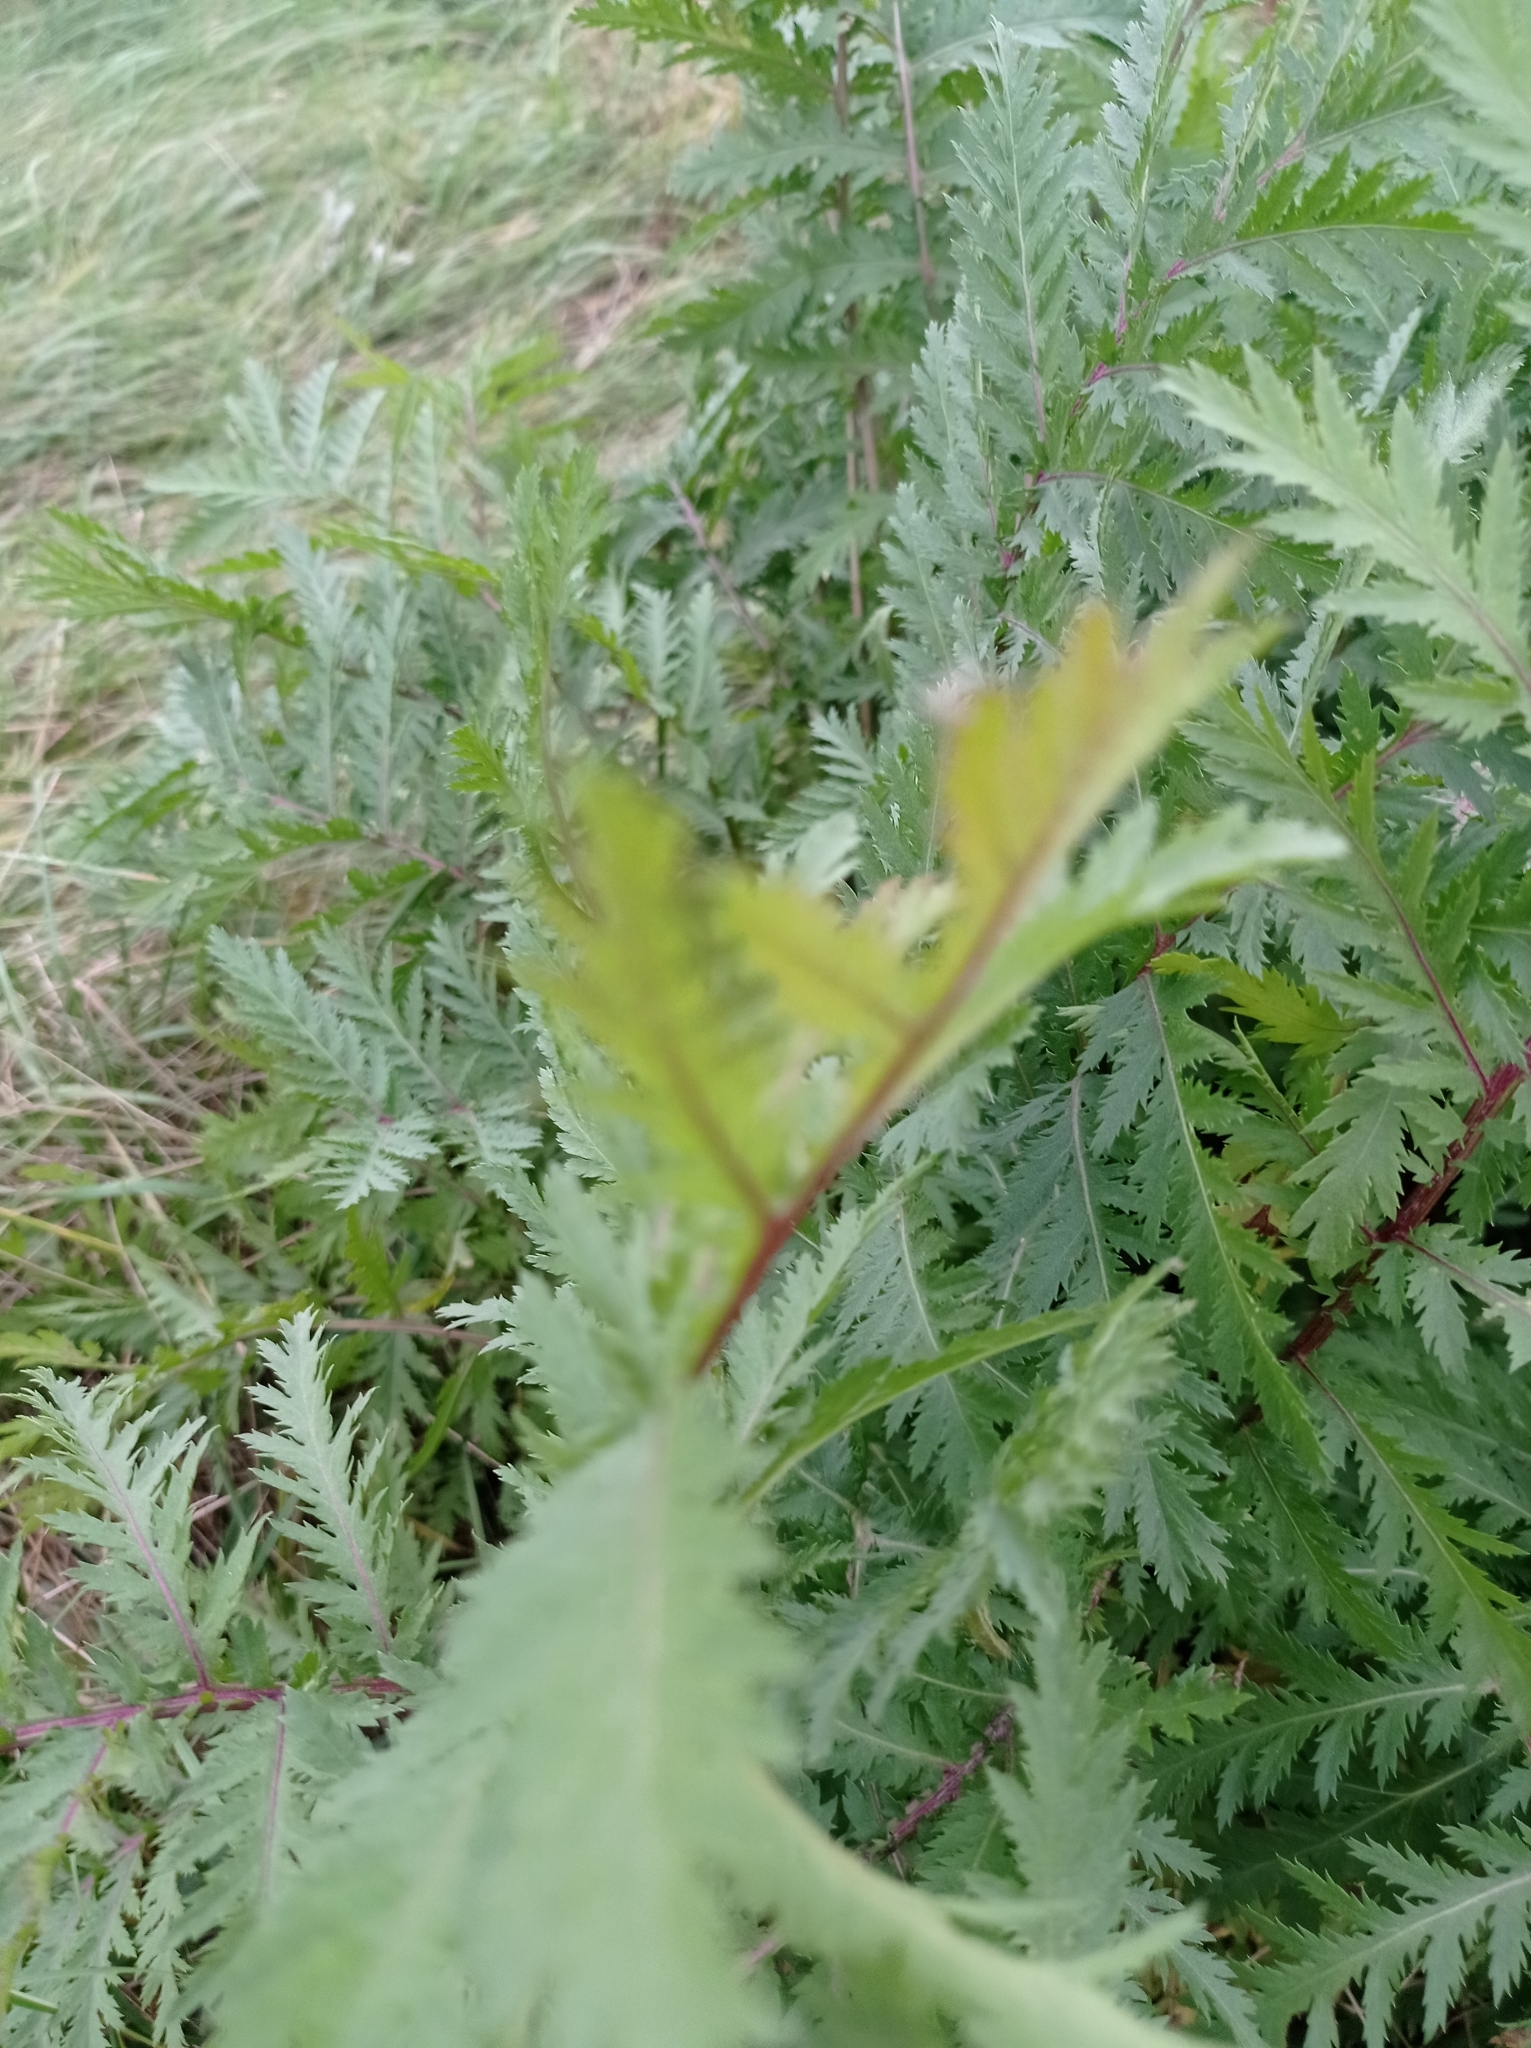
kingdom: Plantae
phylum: Tracheophyta
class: Magnoliopsida
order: Asterales
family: Asteraceae
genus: Tanacetum
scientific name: Tanacetum vulgare
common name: Common tansy
